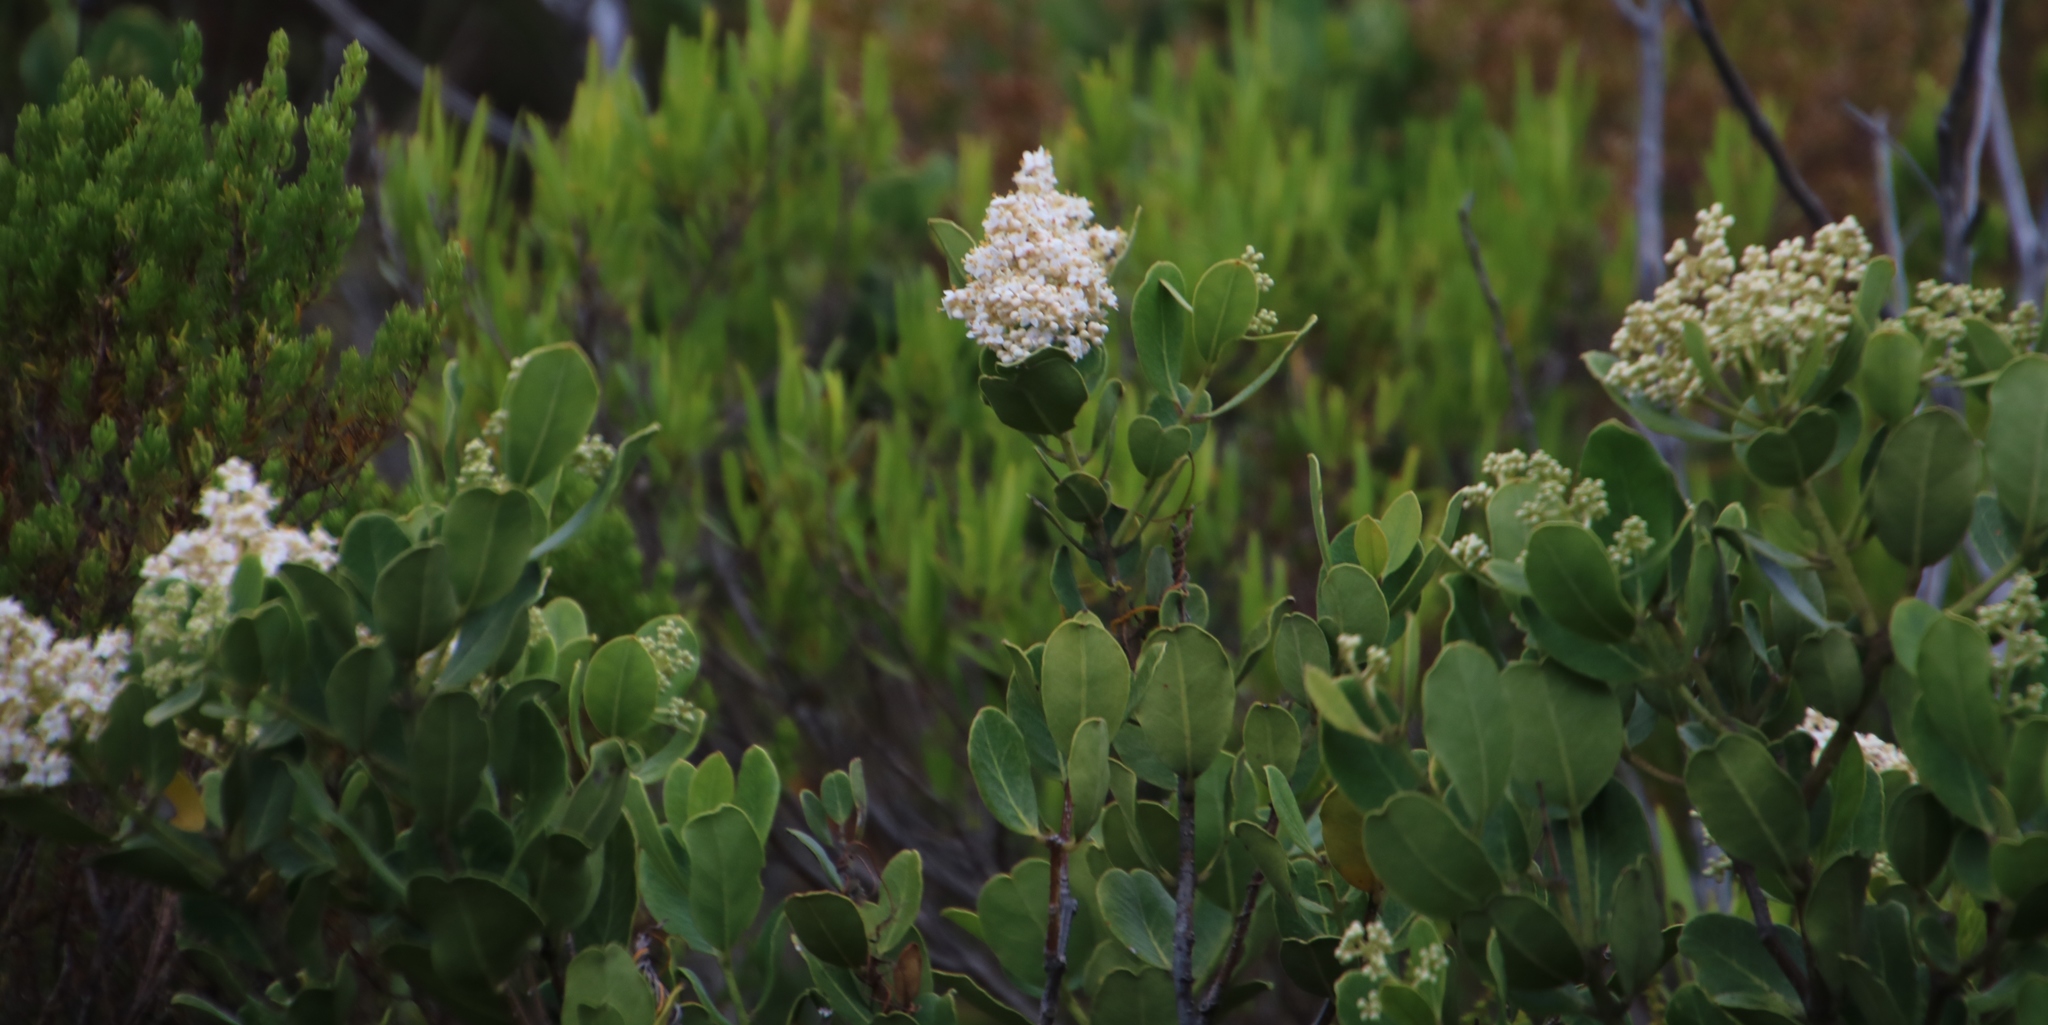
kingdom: Plantae
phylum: Tracheophyta
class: Magnoliopsida
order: Lamiales
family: Oleaceae
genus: Olea
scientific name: Olea capensis
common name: Black ironwood
